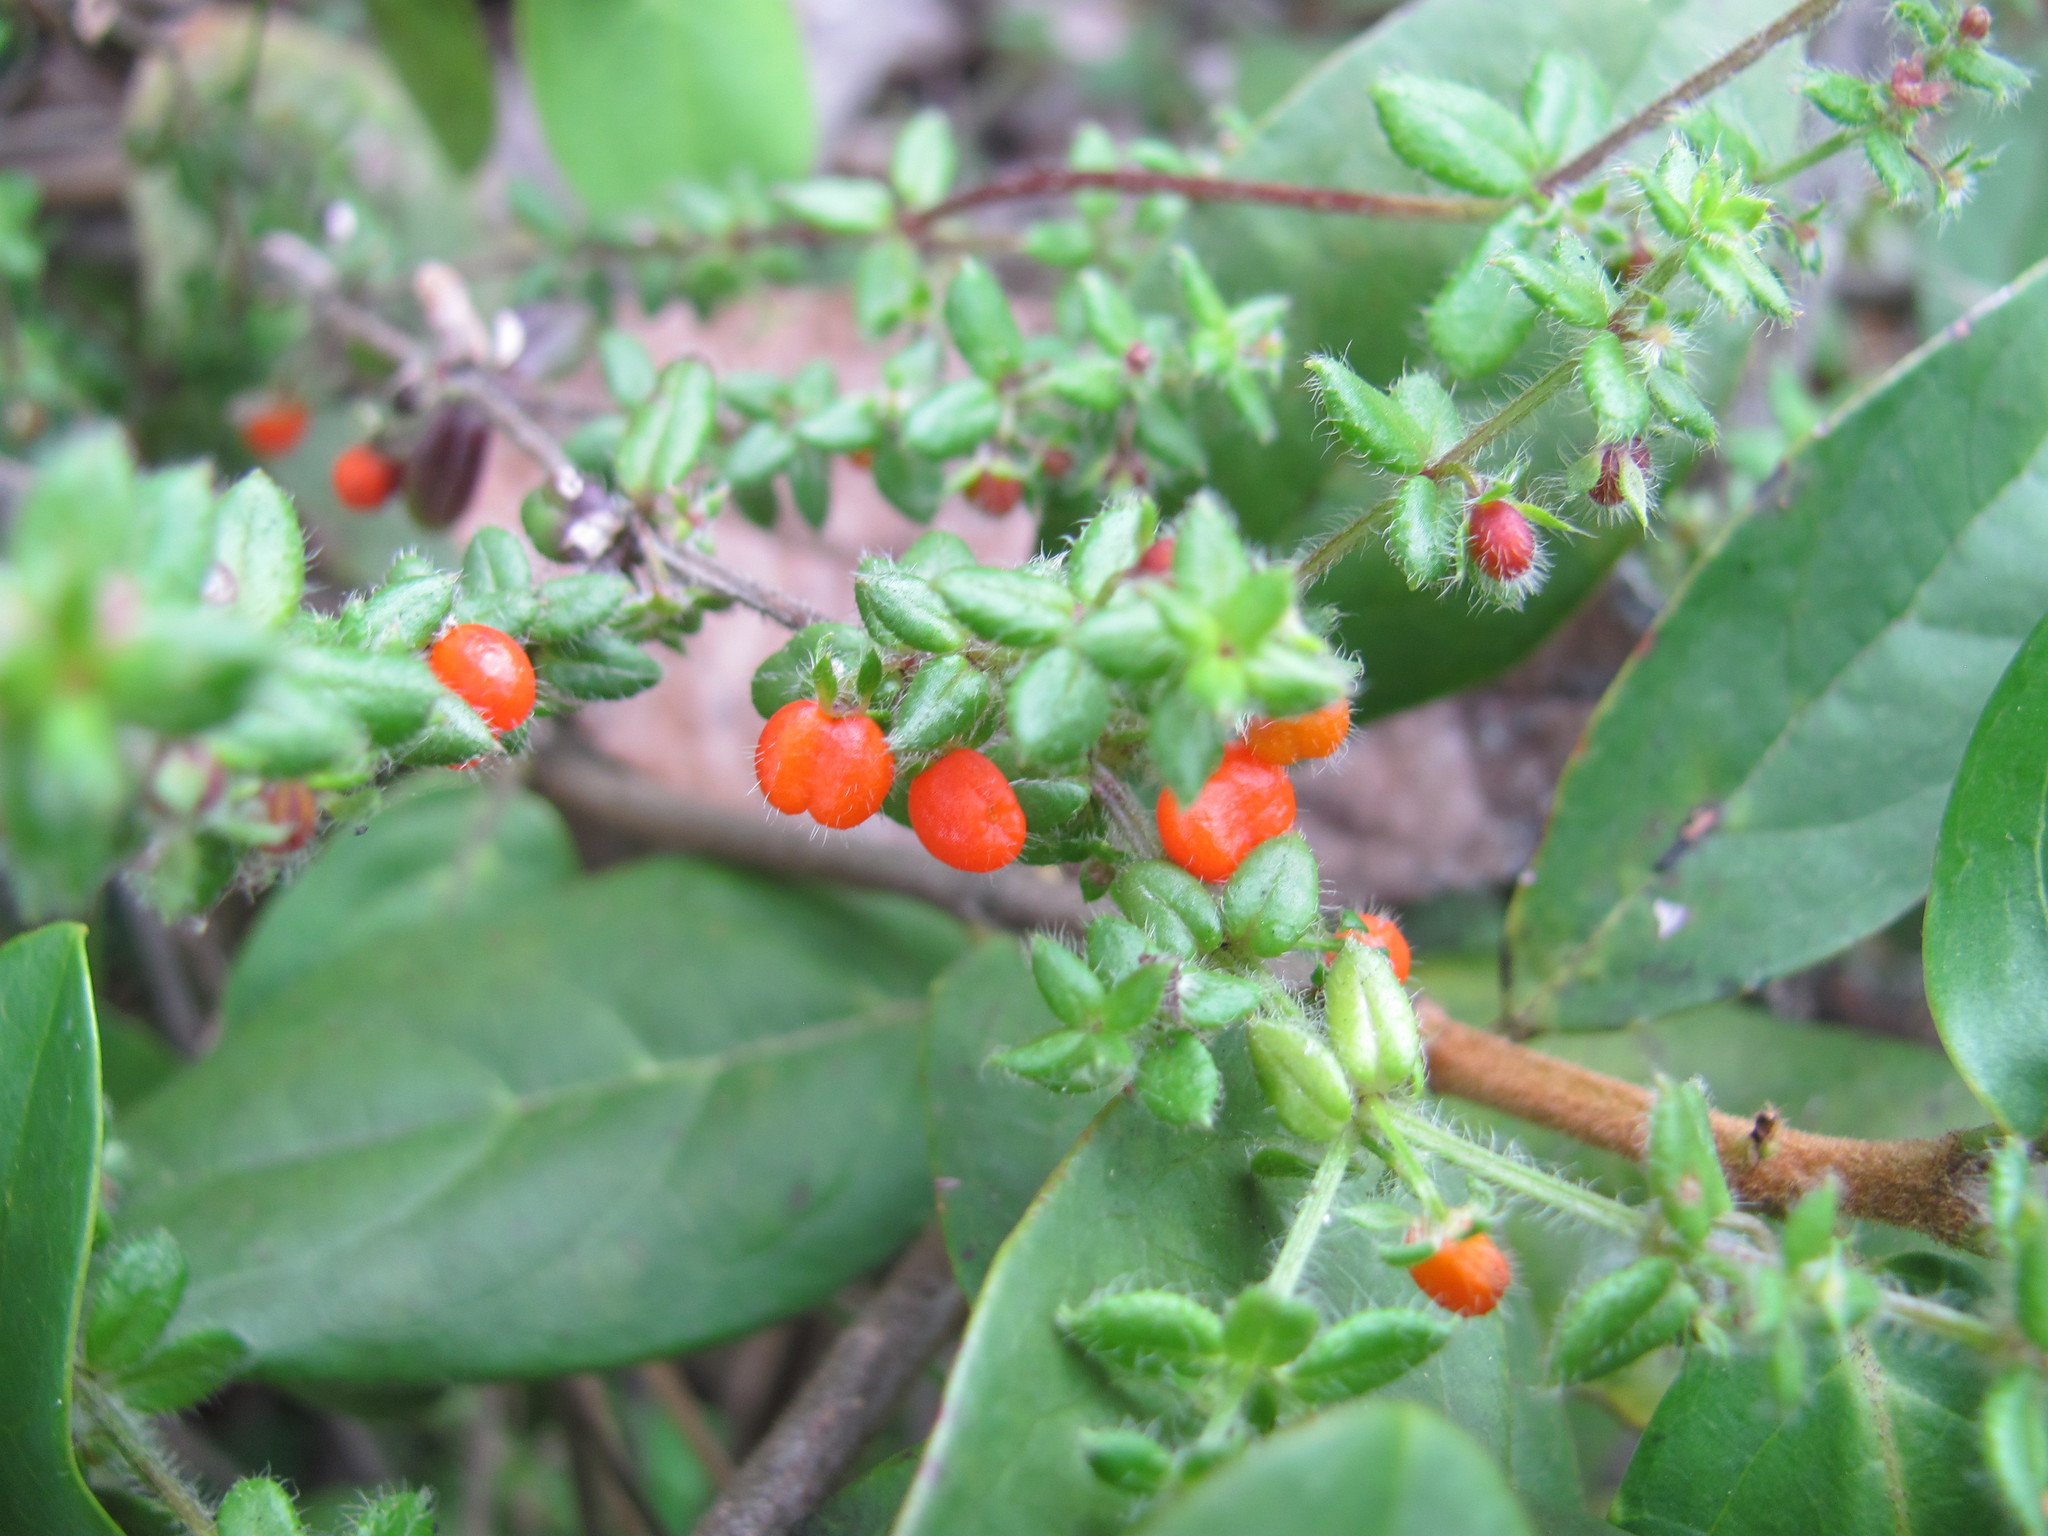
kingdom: Plantae
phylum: Tracheophyta
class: Magnoliopsida
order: Gentianales
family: Rubiaceae
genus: Galium
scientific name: Galium hypocarpium
